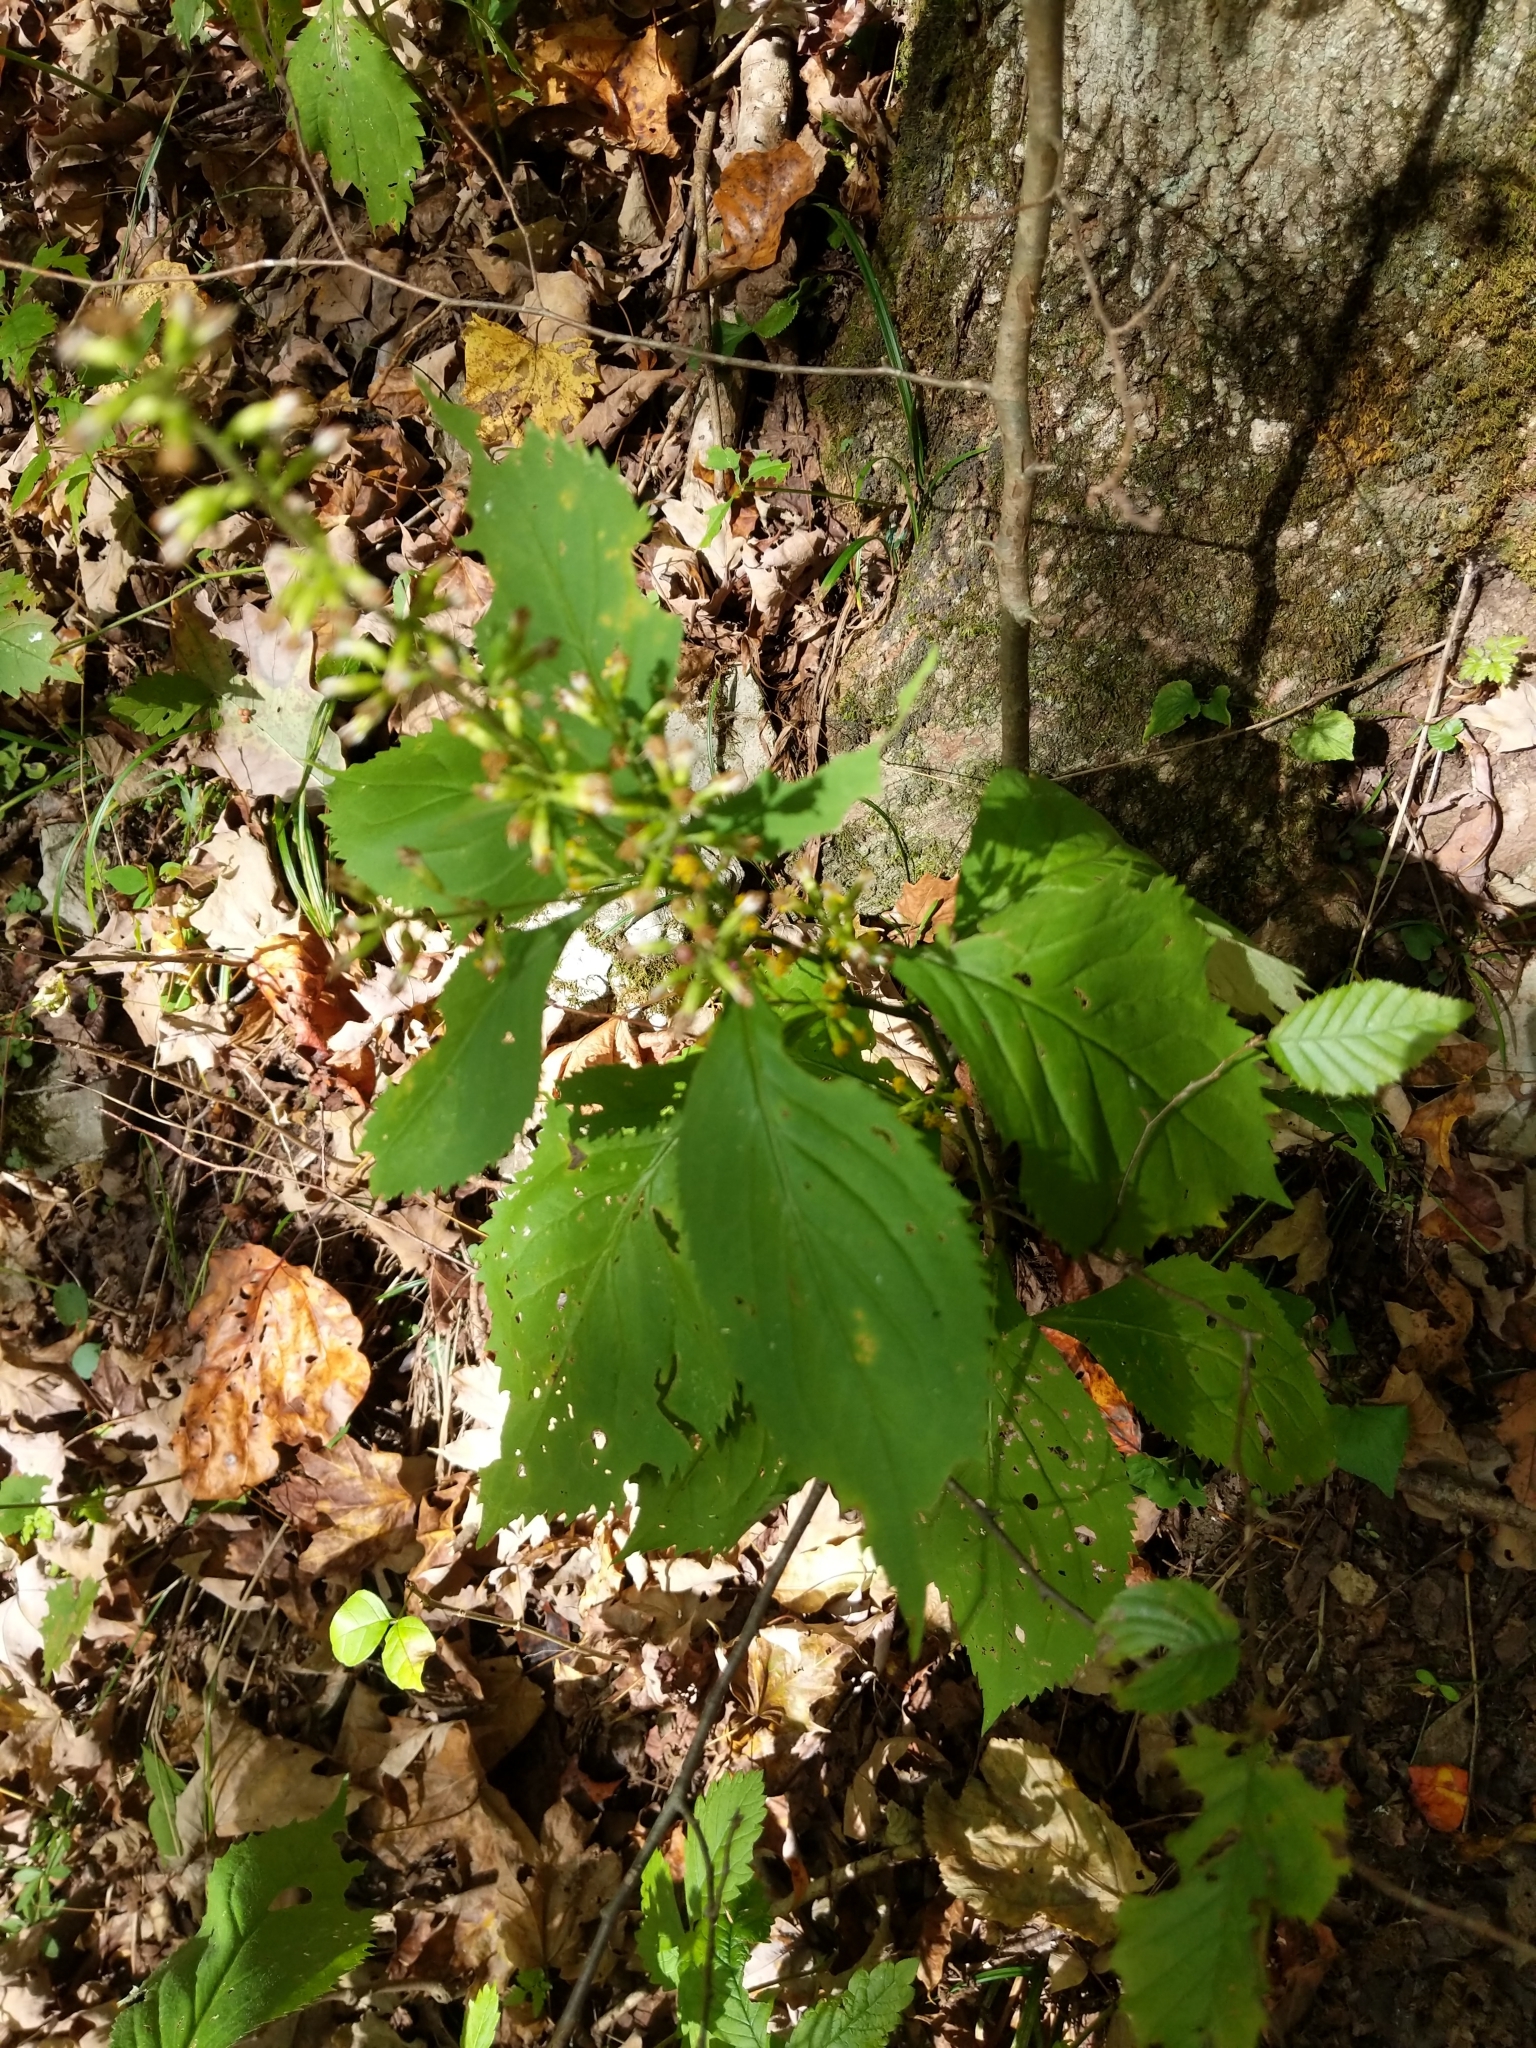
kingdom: Plantae
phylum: Tracheophyta
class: Magnoliopsida
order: Asterales
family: Asteraceae
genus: Solidago
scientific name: Solidago flexicaulis
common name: Zig-zag goldenrod
